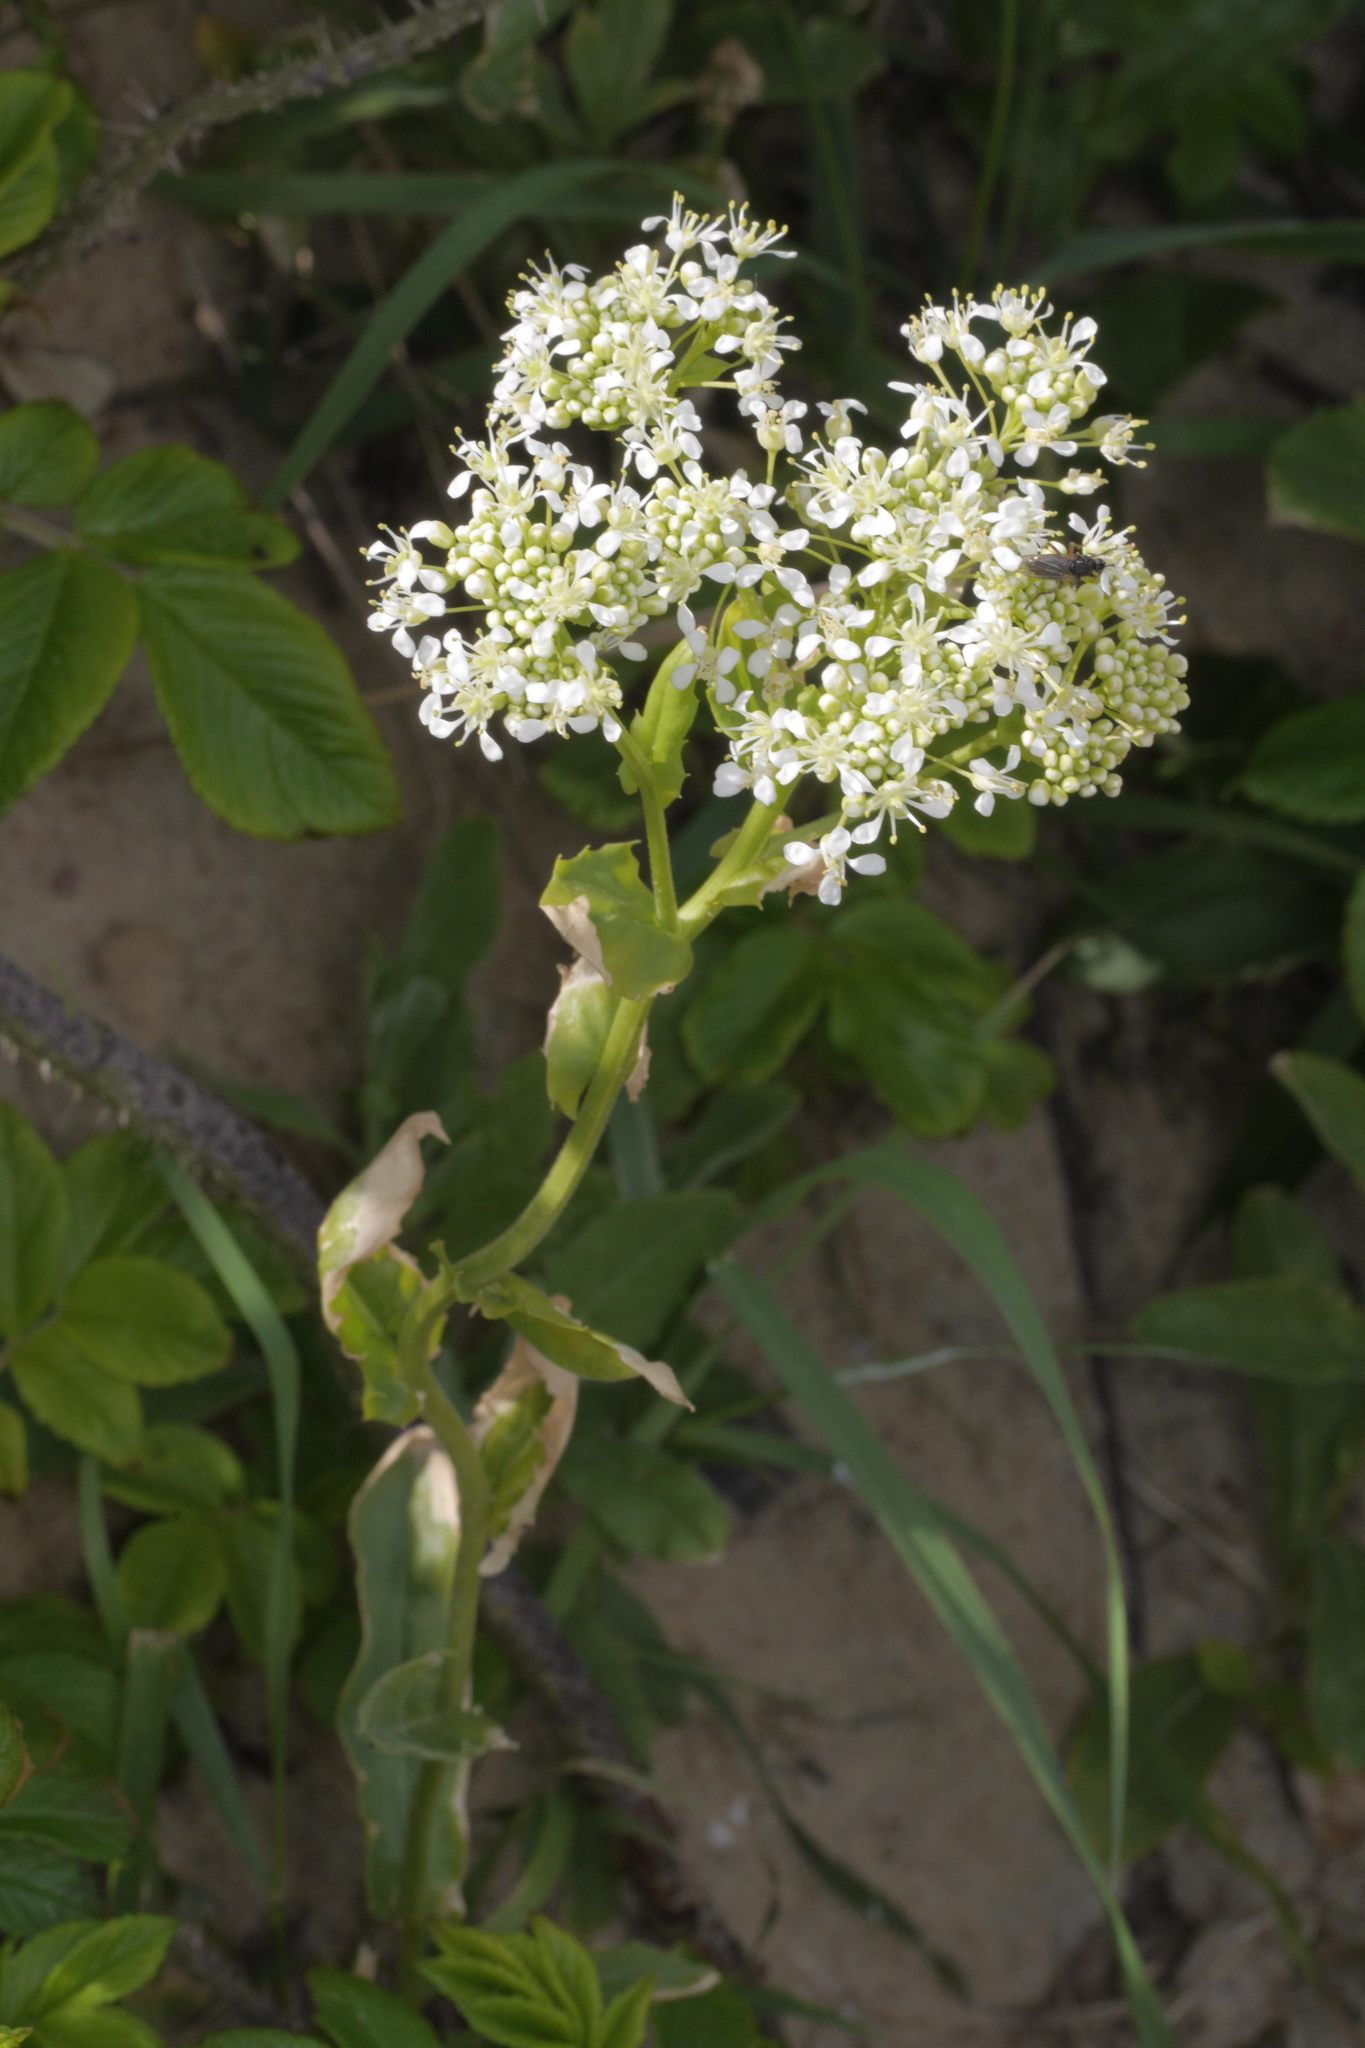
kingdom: Plantae
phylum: Tracheophyta
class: Magnoliopsida
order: Brassicales
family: Brassicaceae
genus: Lepidium
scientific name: Lepidium draba
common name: Hoary cress
